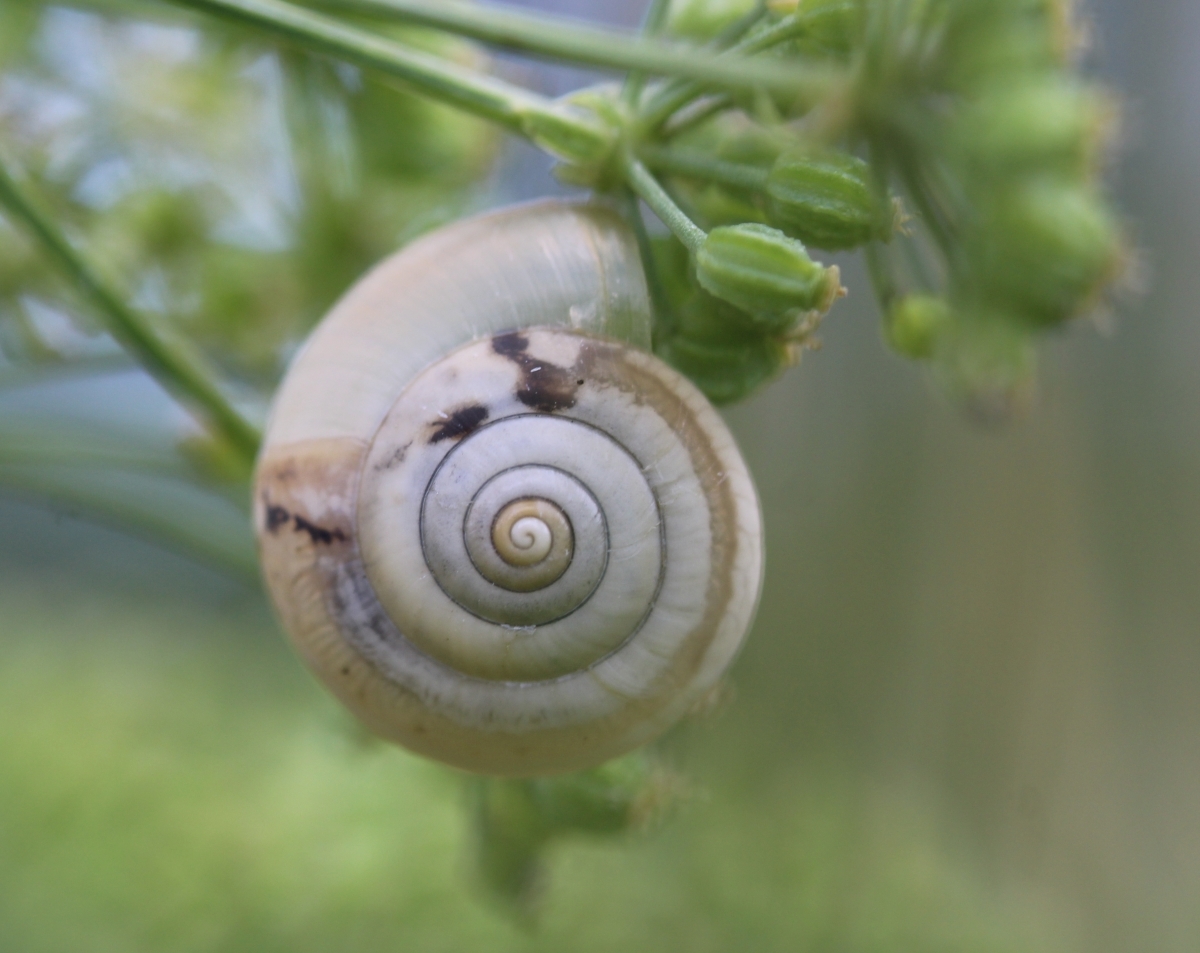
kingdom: Animalia
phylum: Mollusca
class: Gastropoda
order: Stylommatophora
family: Hygromiidae
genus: Monacha
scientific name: Monacha
